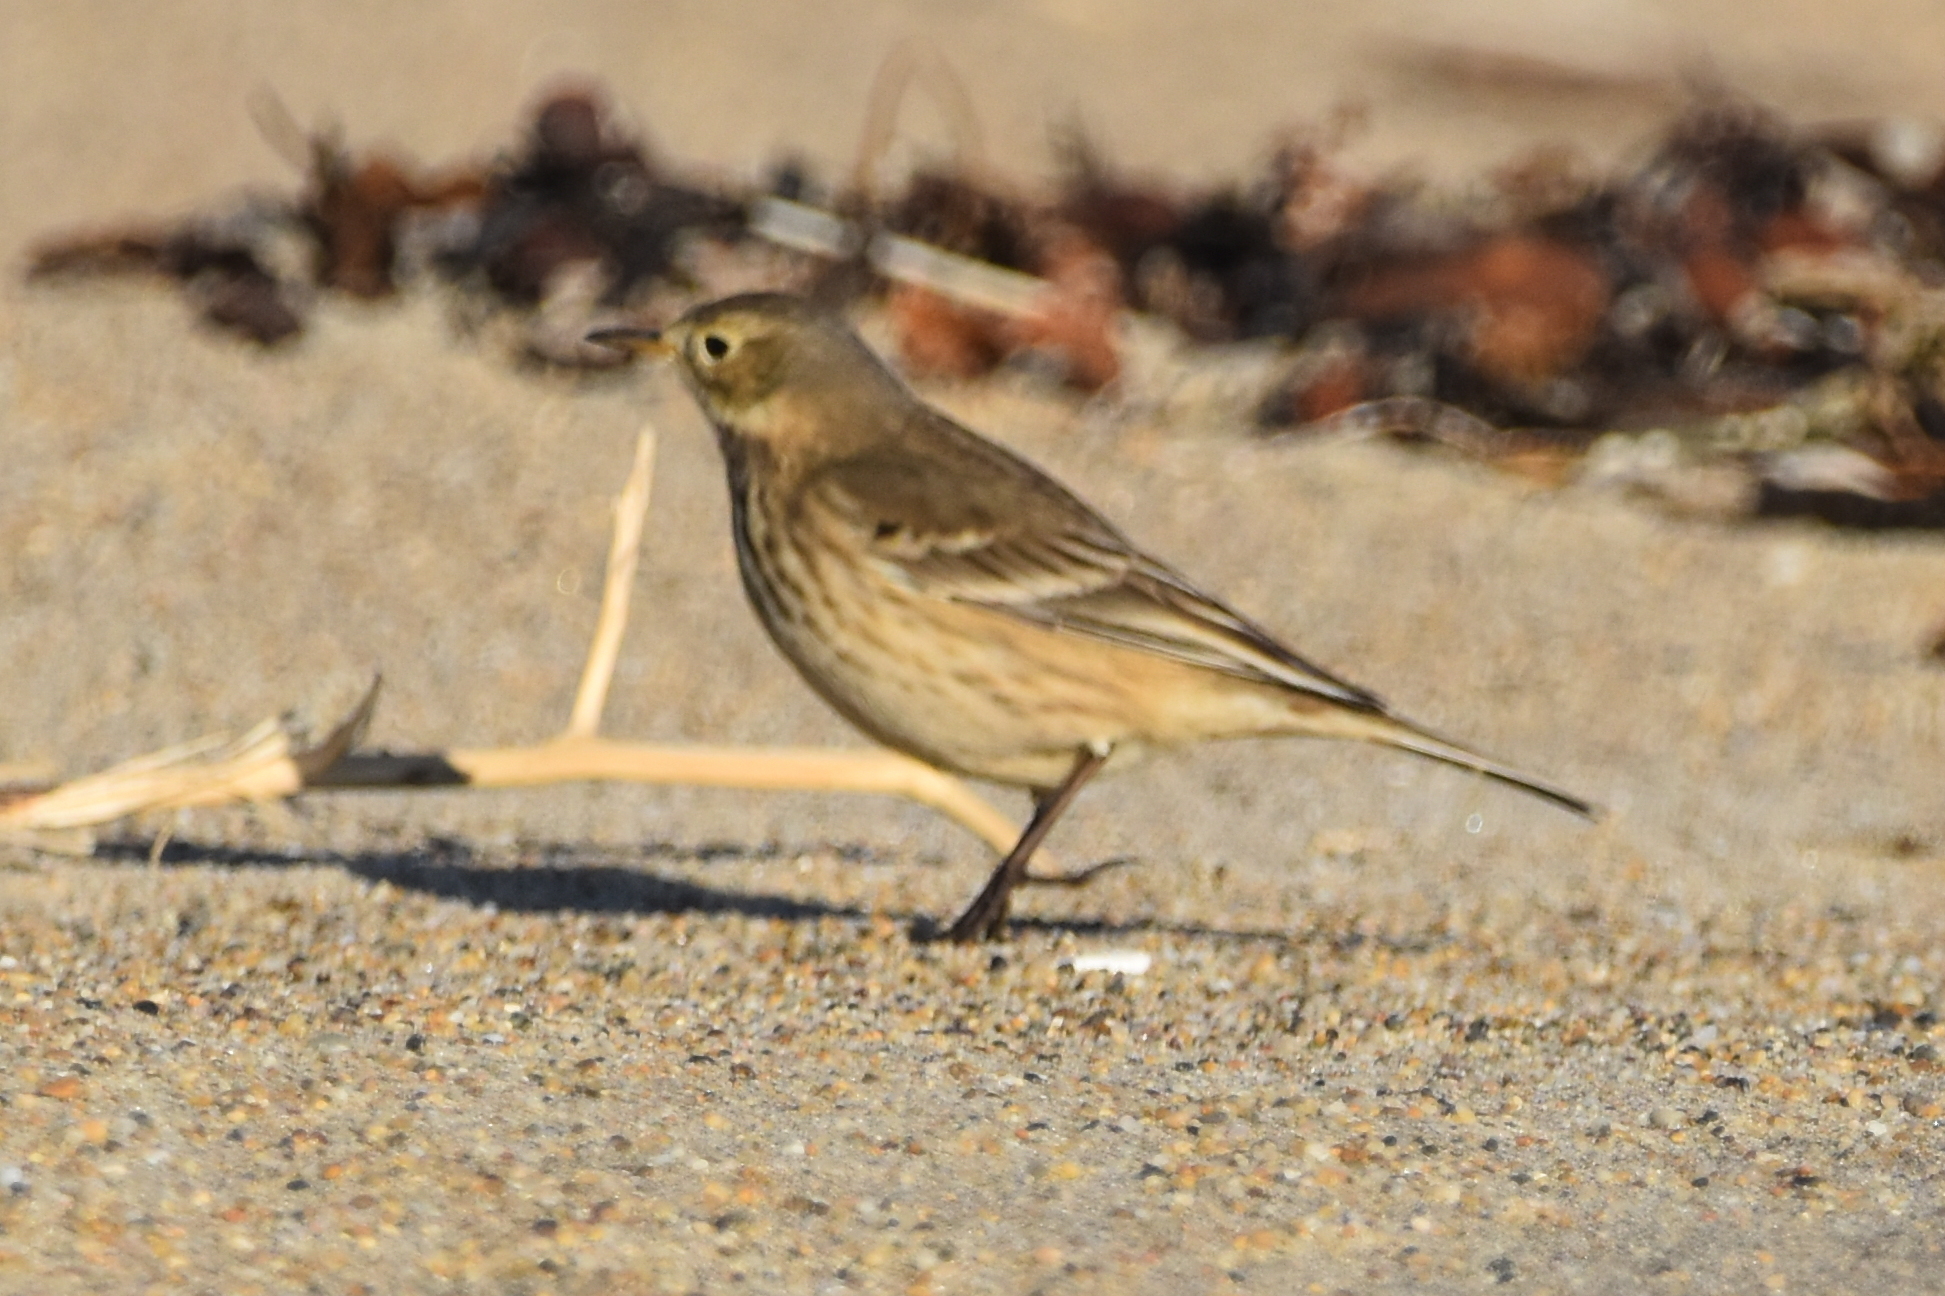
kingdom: Animalia
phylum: Chordata
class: Aves
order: Passeriformes
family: Motacillidae
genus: Anthus
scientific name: Anthus rubescens
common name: Buff-bellied pipit
